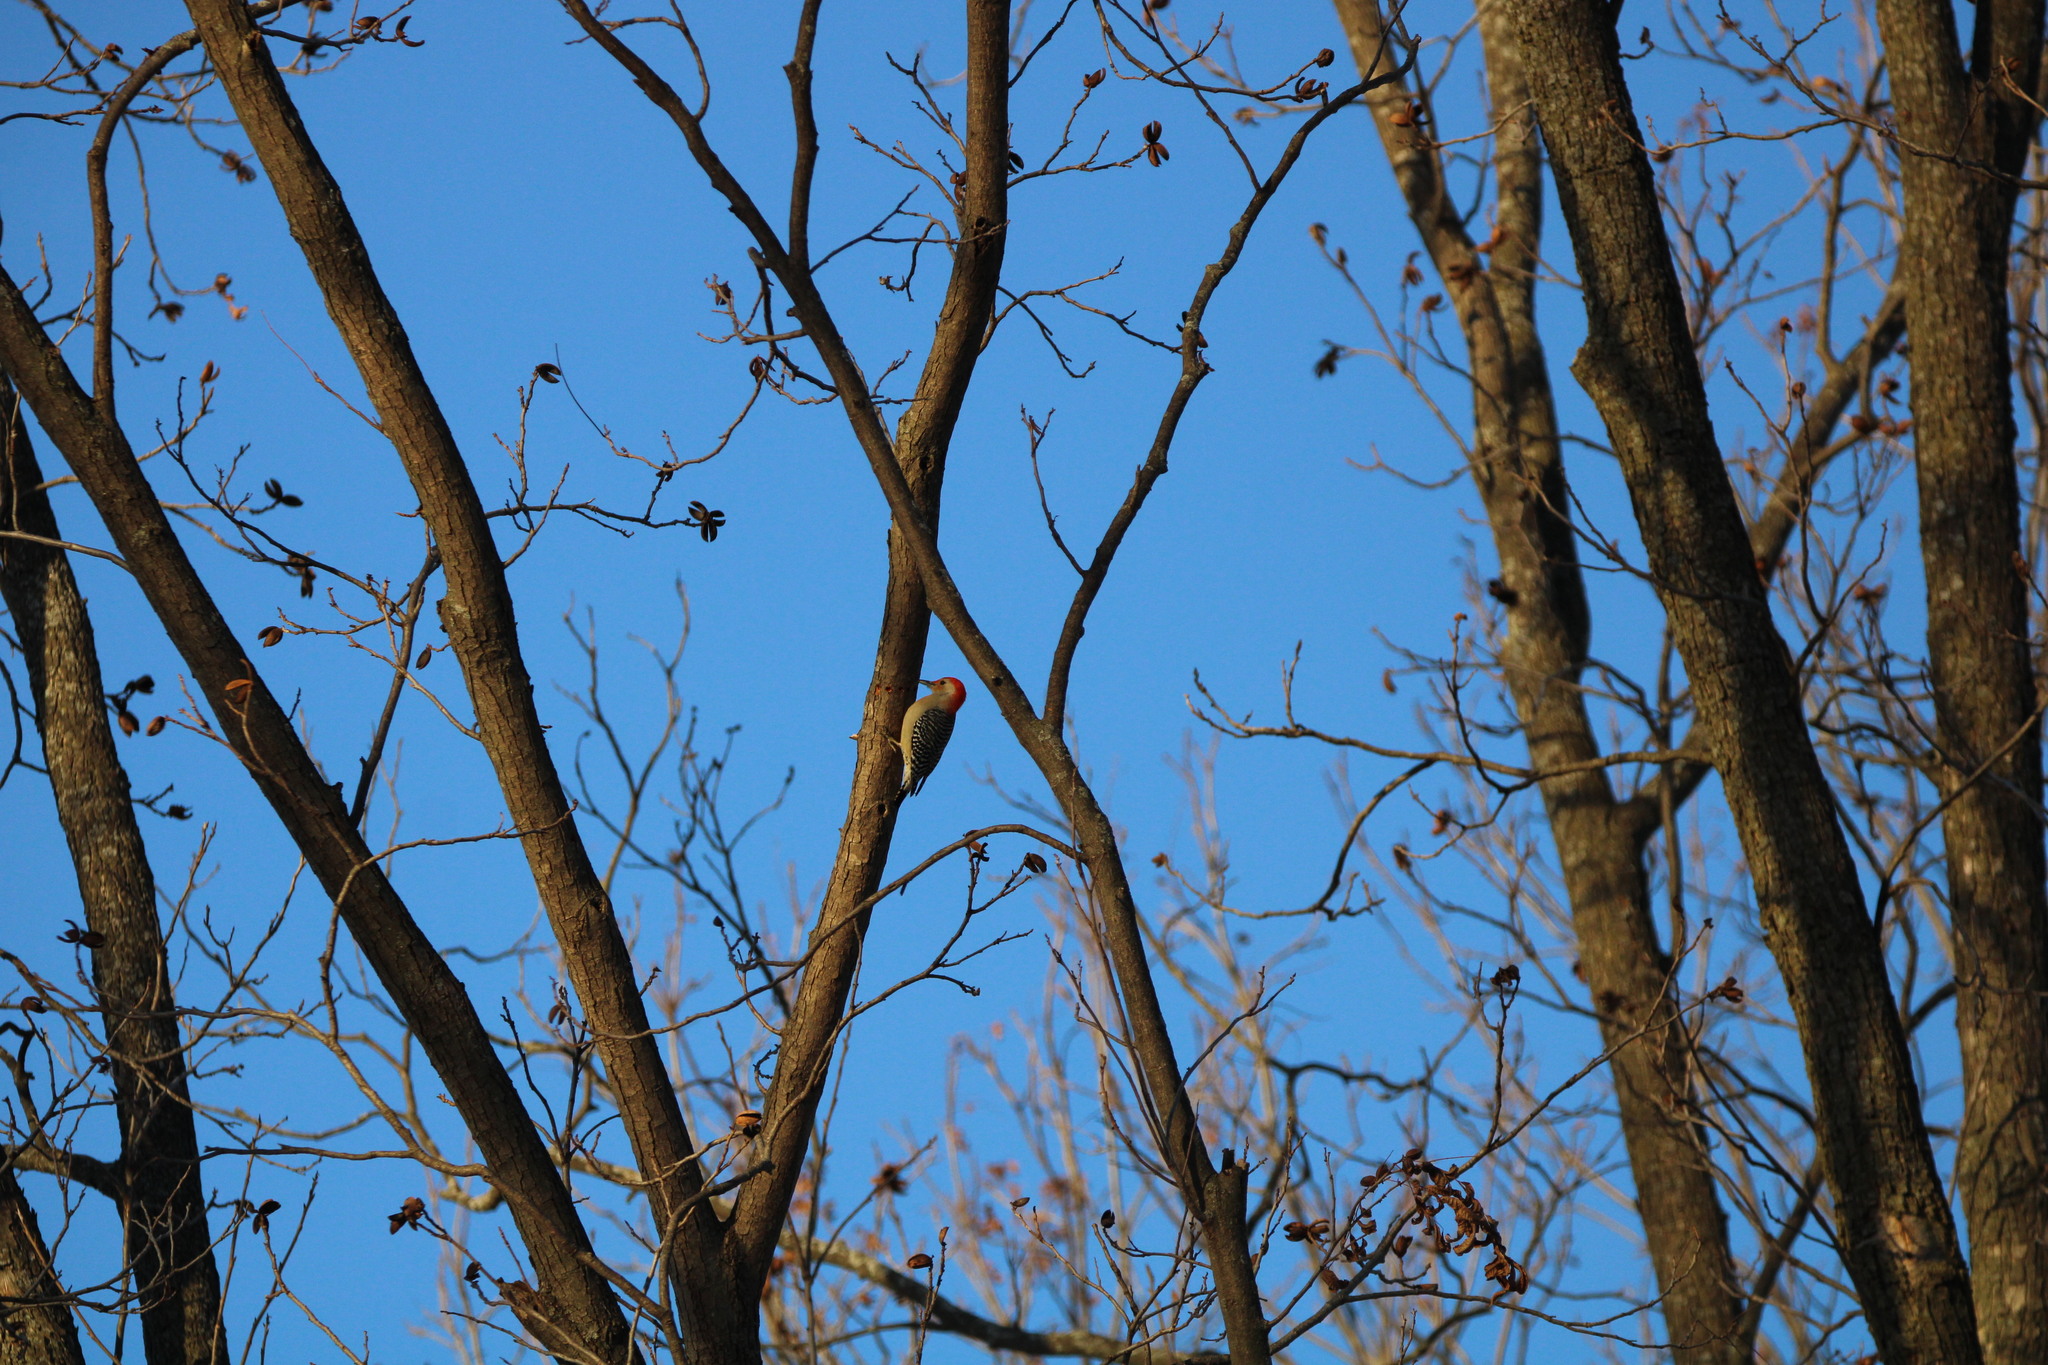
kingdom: Animalia
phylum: Chordata
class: Aves
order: Piciformes
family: Picidae
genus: Melanerpes
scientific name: Melanerpes carolinus
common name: Red-bellied woodpecker
